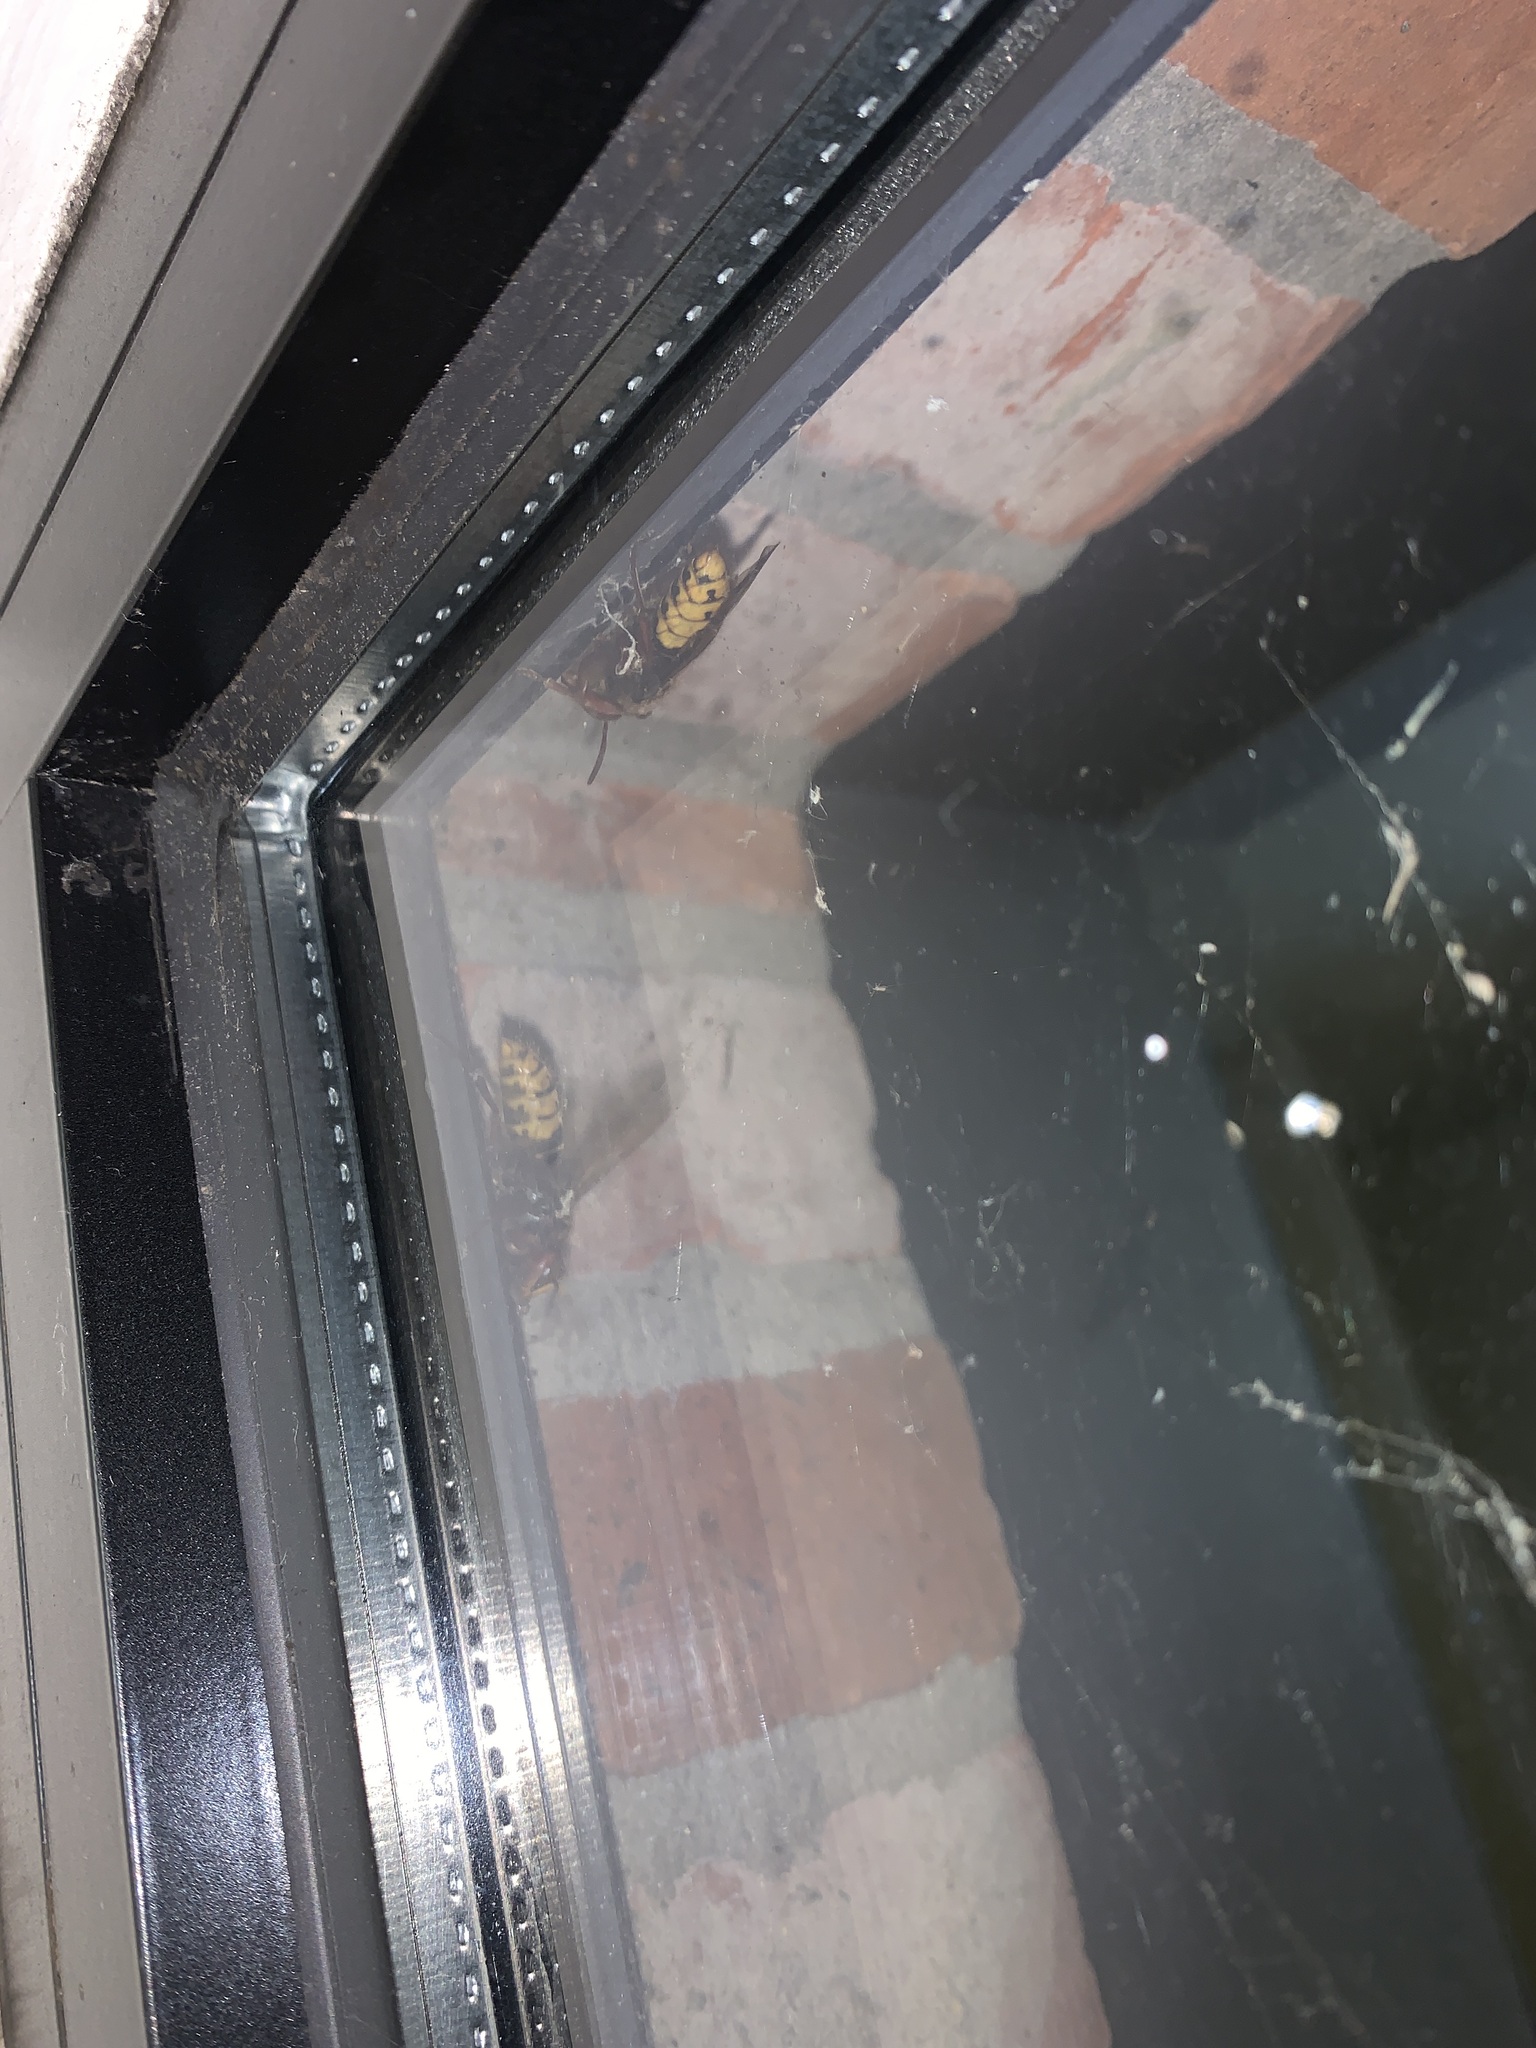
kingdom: Animalia
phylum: Arthropoda
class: Insecta
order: Hymenoptera
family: Vespidae
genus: Vespa
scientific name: Vespa crabro
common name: Hornet
